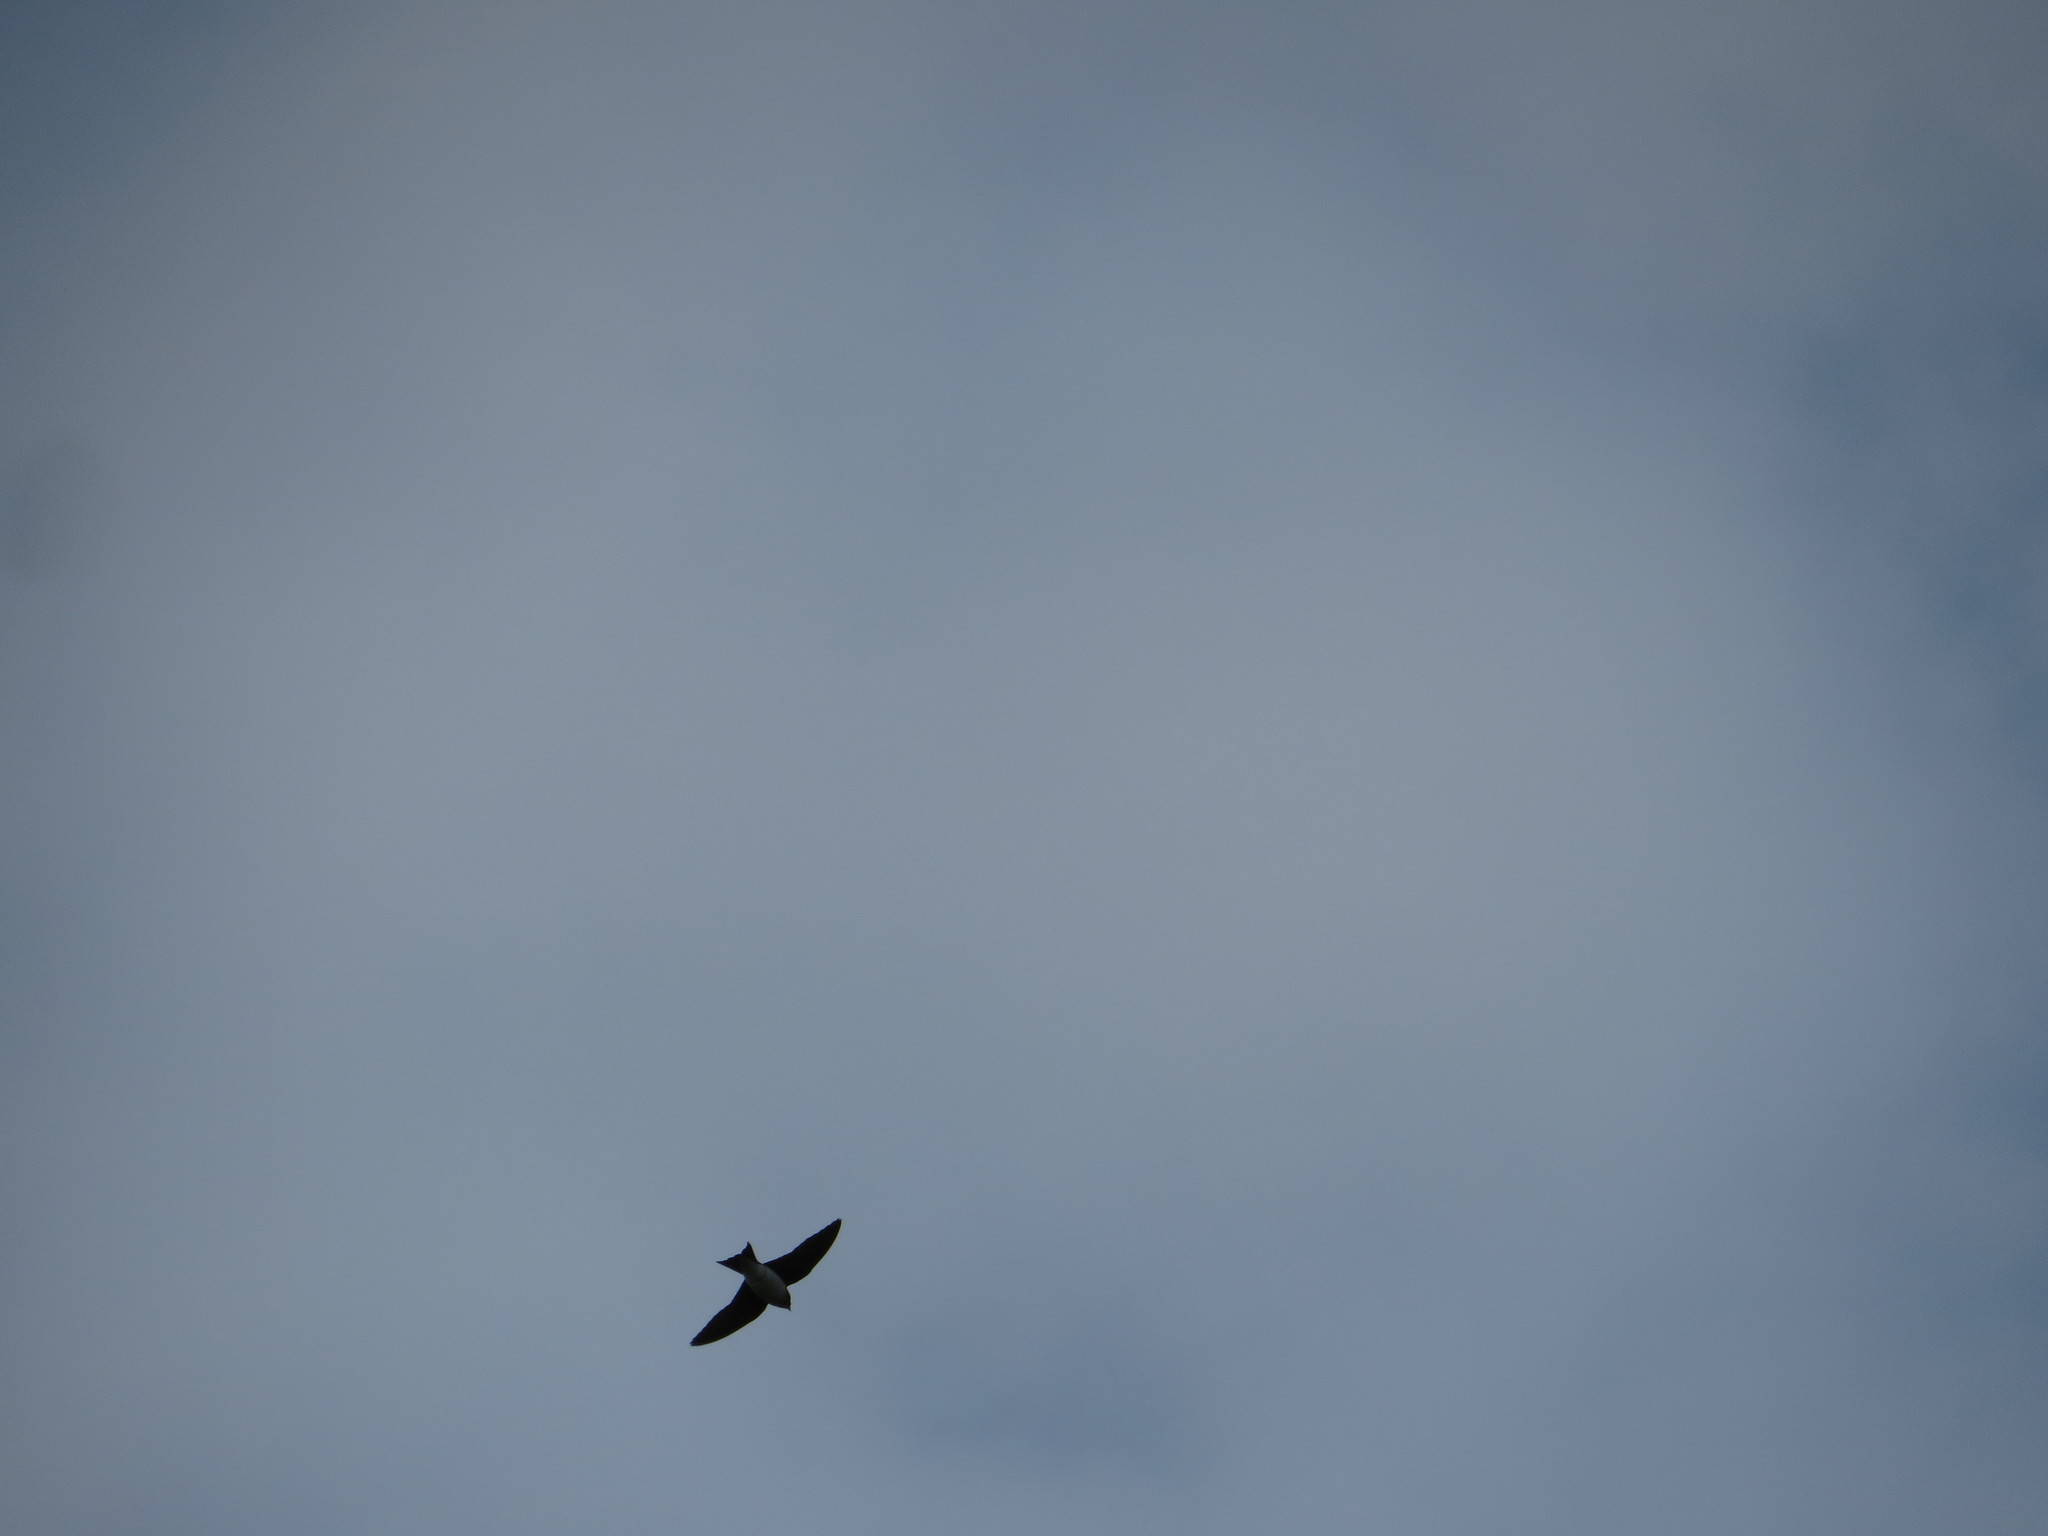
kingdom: Animalia
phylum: Chordata
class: Aves
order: Passeriformes
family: Hirundinidae
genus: Progne
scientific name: Progne chalybea
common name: Grey-breasted martin
